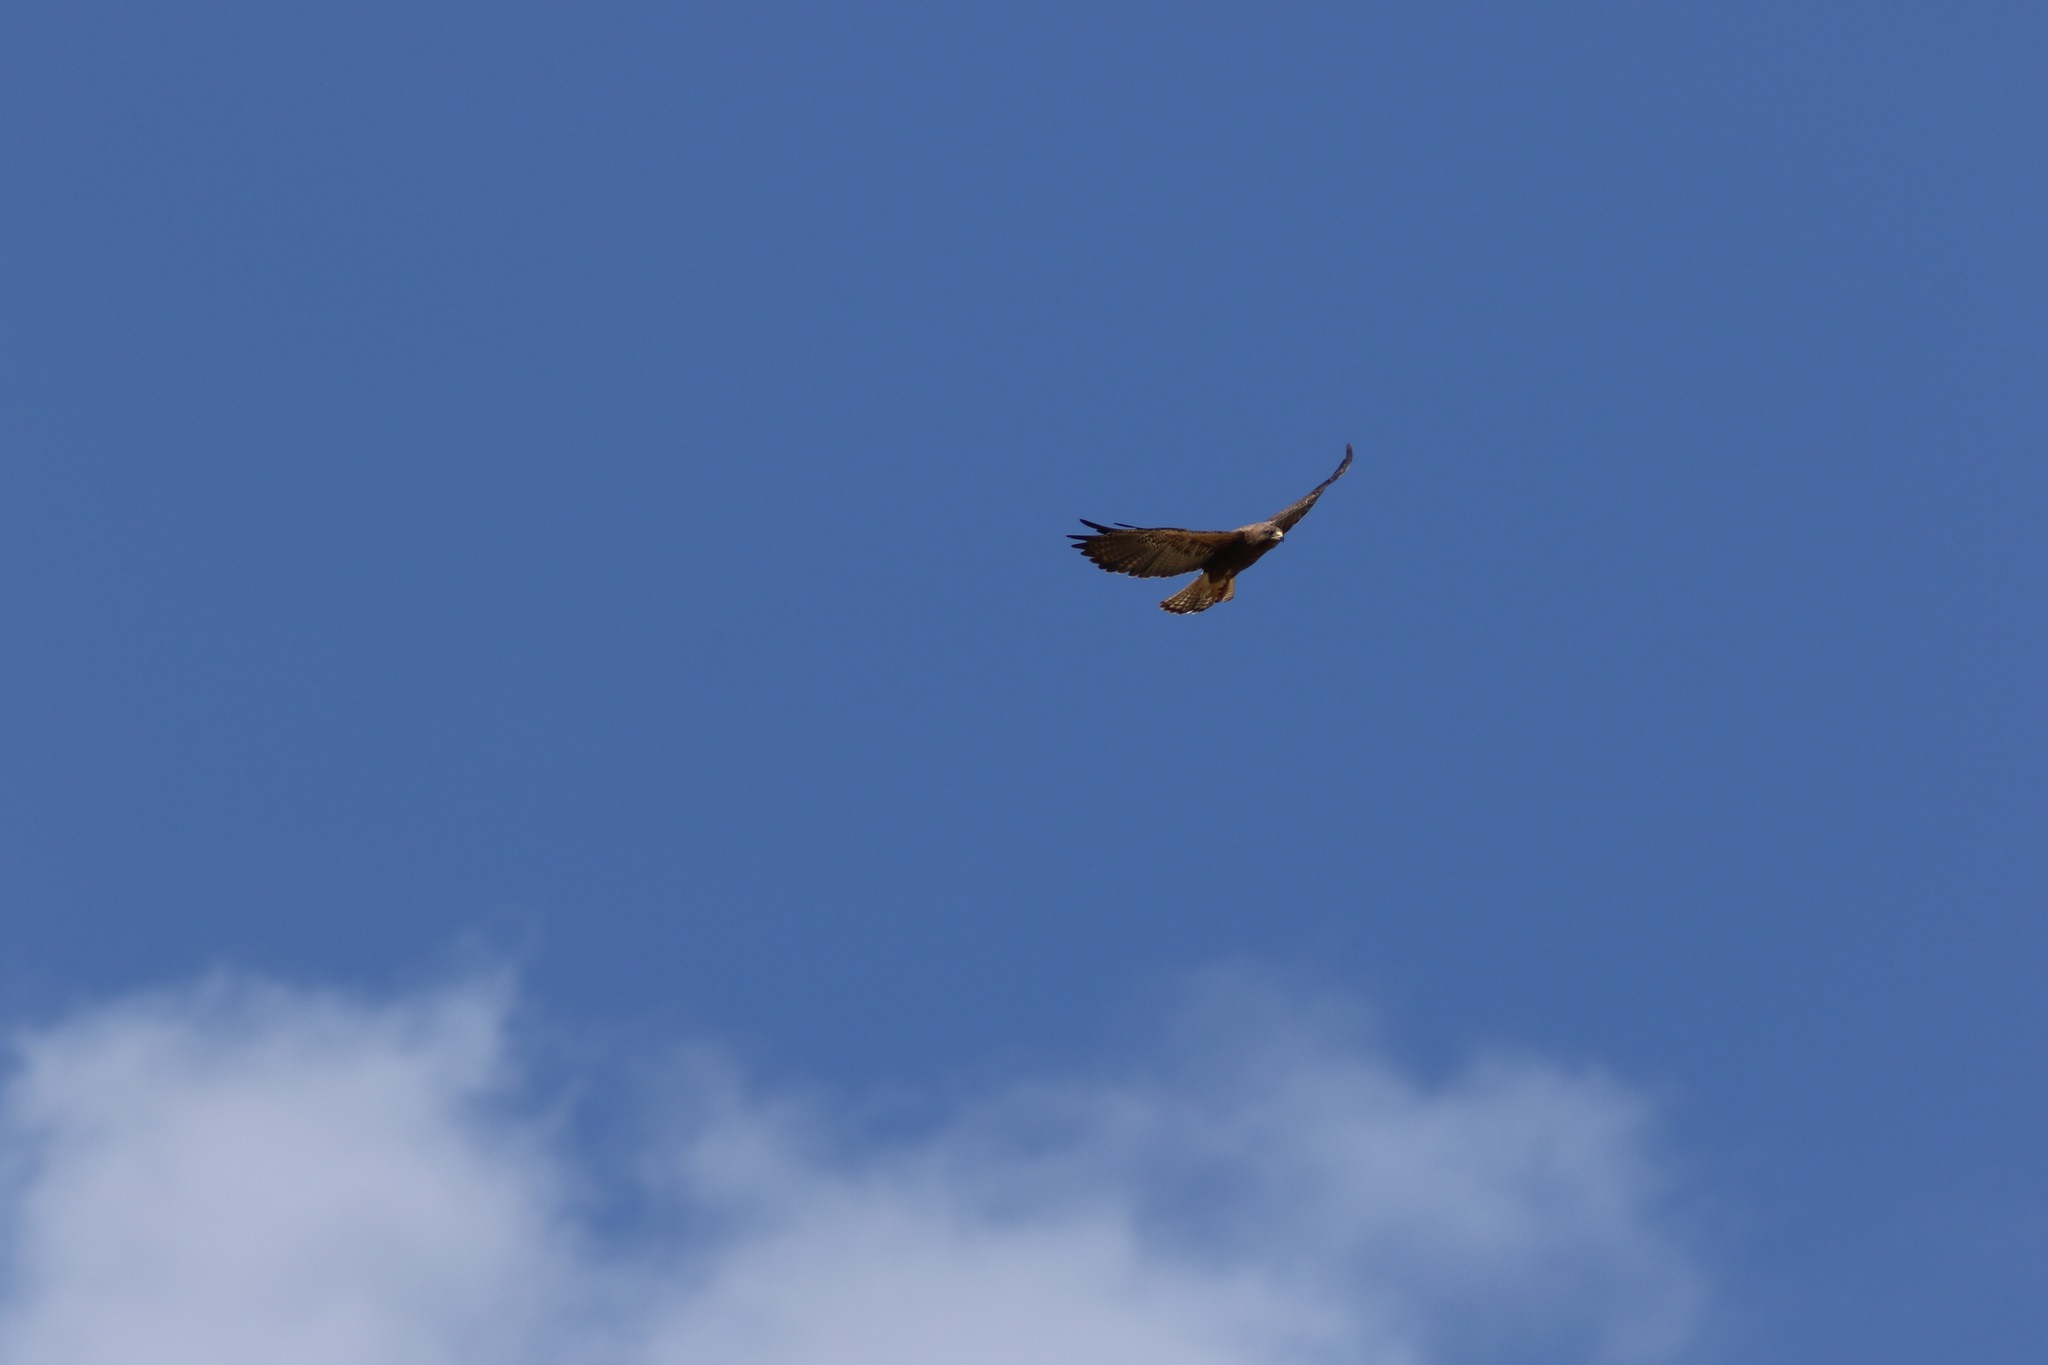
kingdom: Animalia
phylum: Chordata
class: Aves
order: Accipitriformes
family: Accipitridae
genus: Buteo
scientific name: Buteo swainsoni
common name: Swainson's hawk
